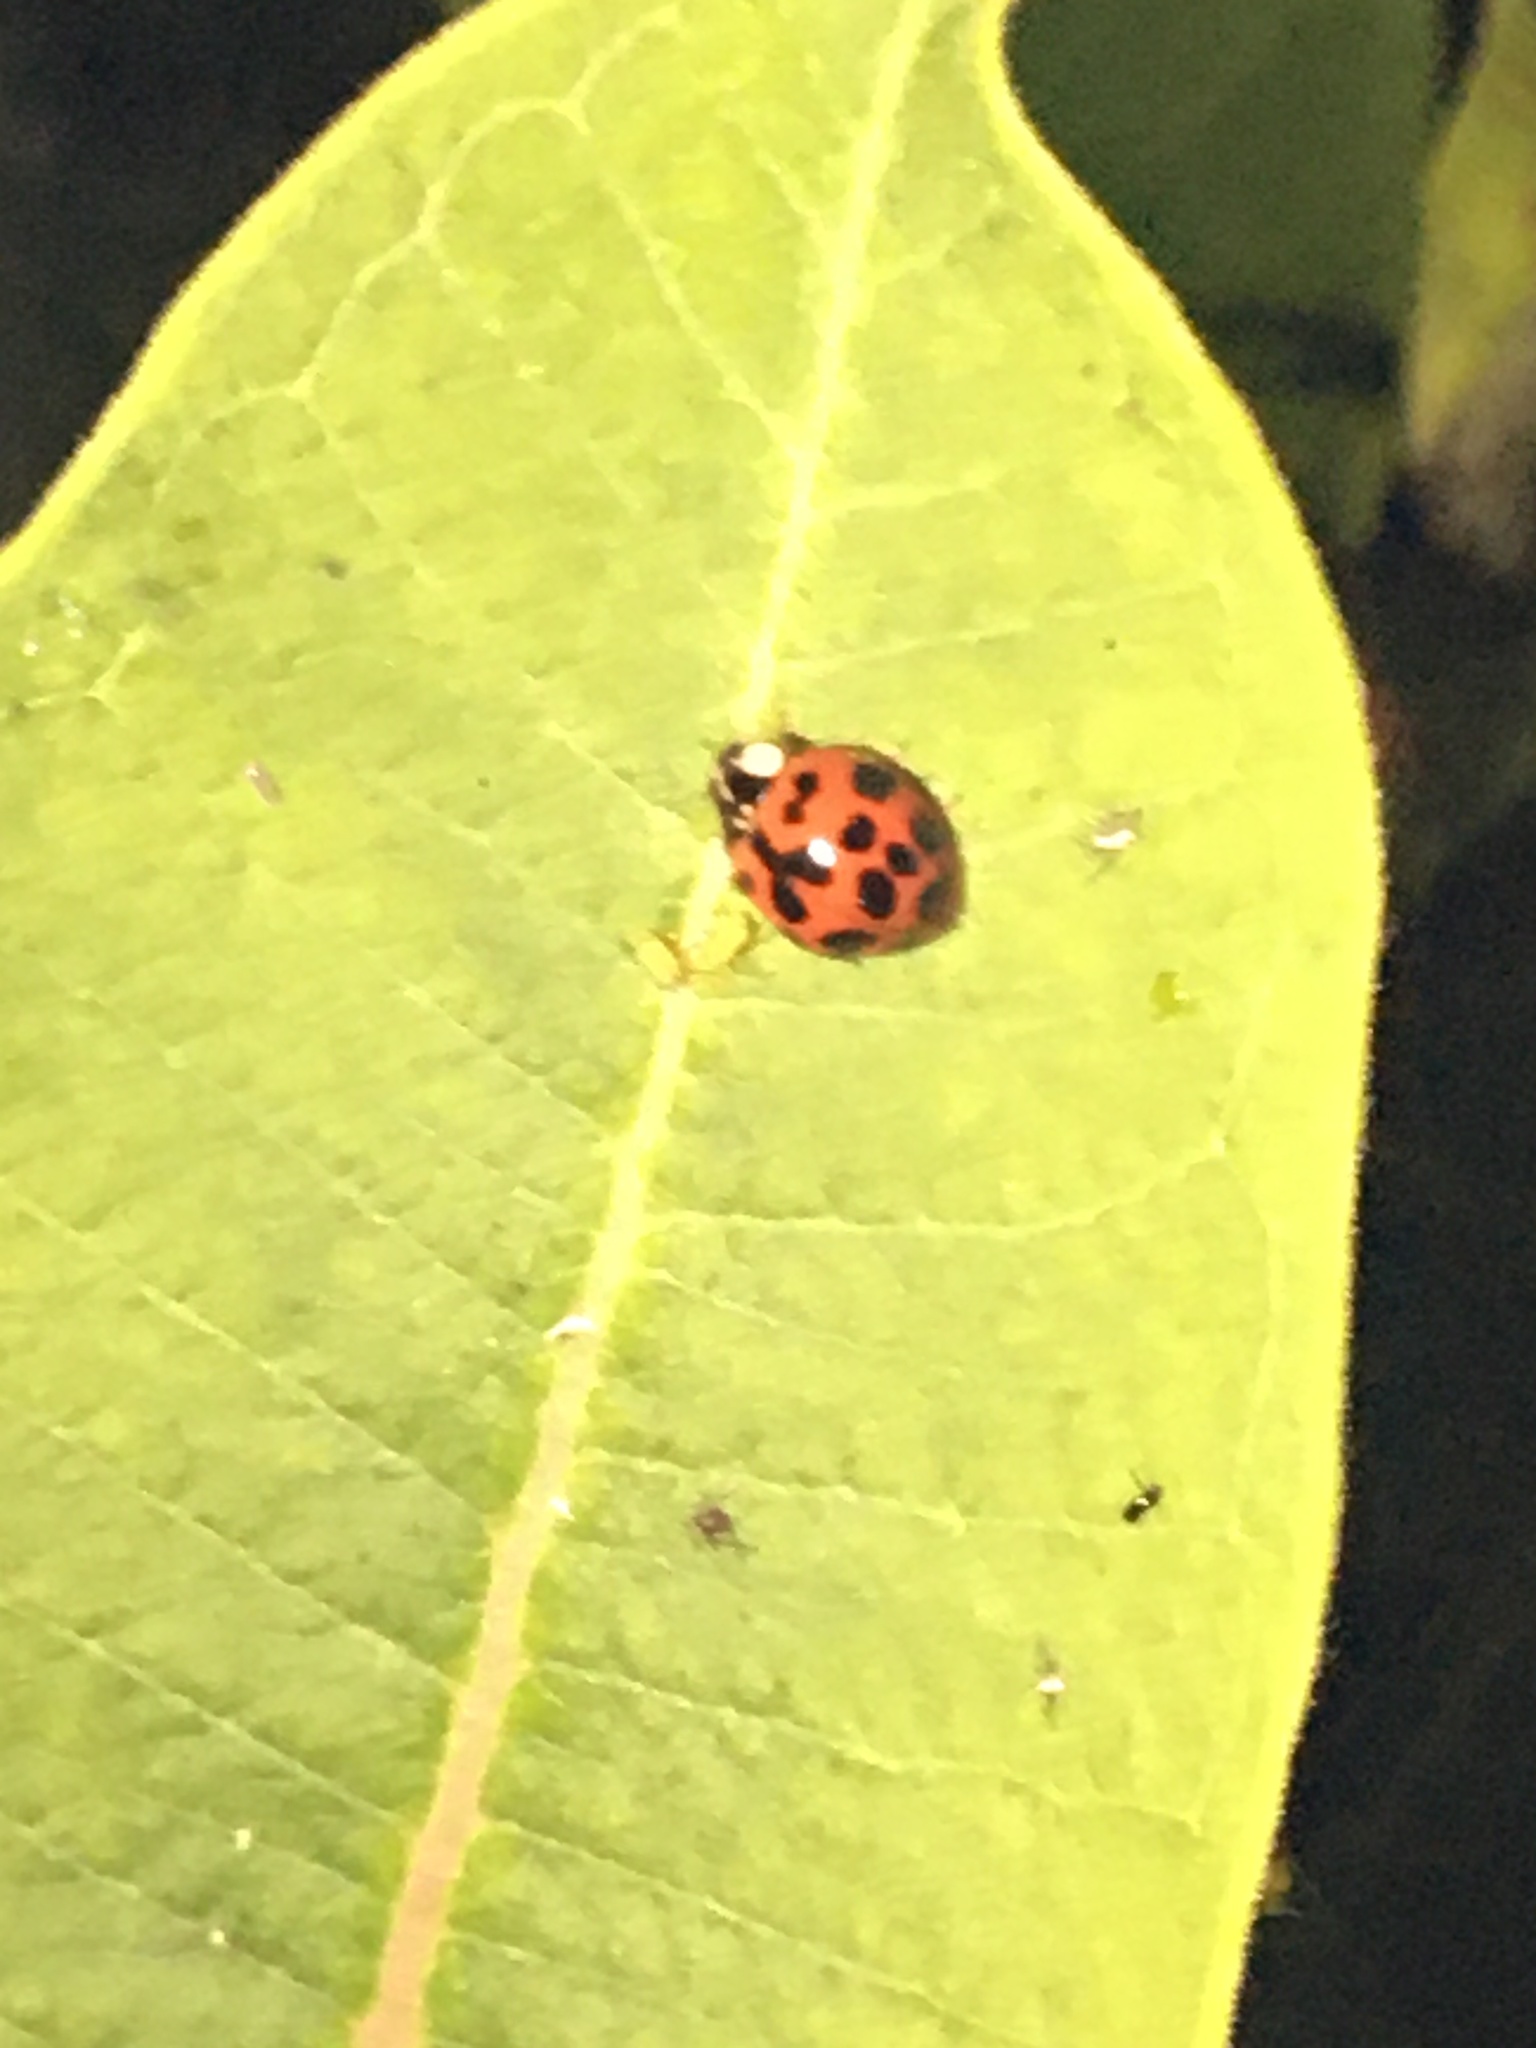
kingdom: Animalia
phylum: Arthropoda
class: Insecta
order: Coleoptera
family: Coccinellidae
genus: Harmonia
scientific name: Harmonia axyridis
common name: Harlequin ladybird
